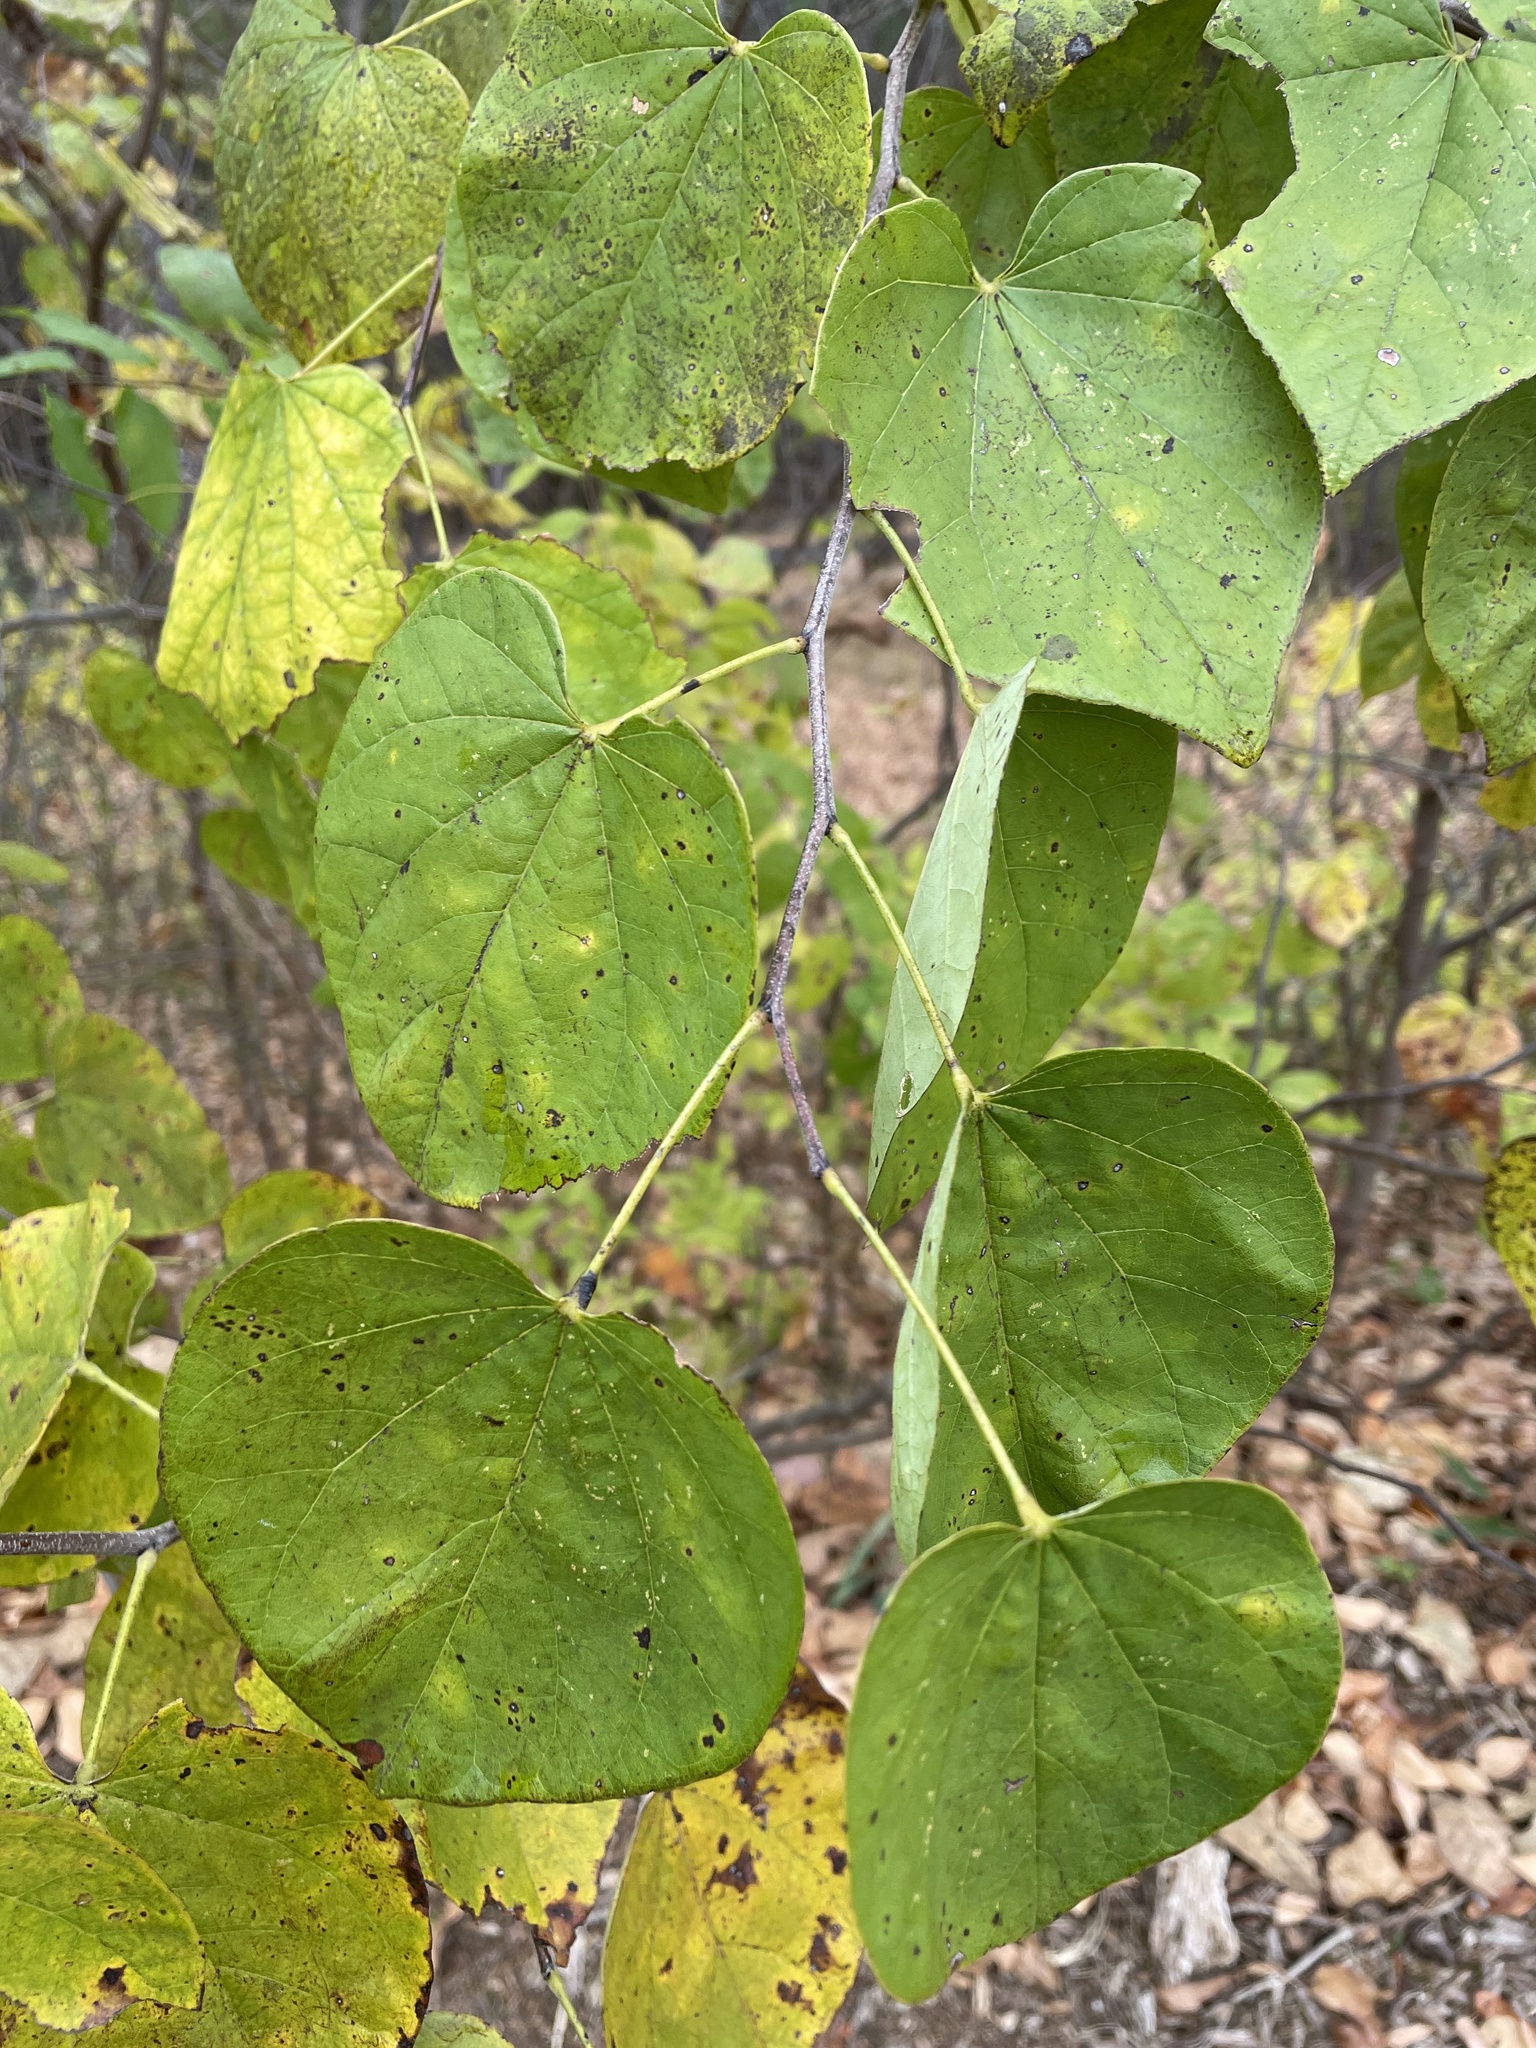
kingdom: Plantae
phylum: Tracheophyta
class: Magnoliopsida
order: Fabales
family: Fabaceae
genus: Cercis
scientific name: Cercis canadensis
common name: Eastern redbud
